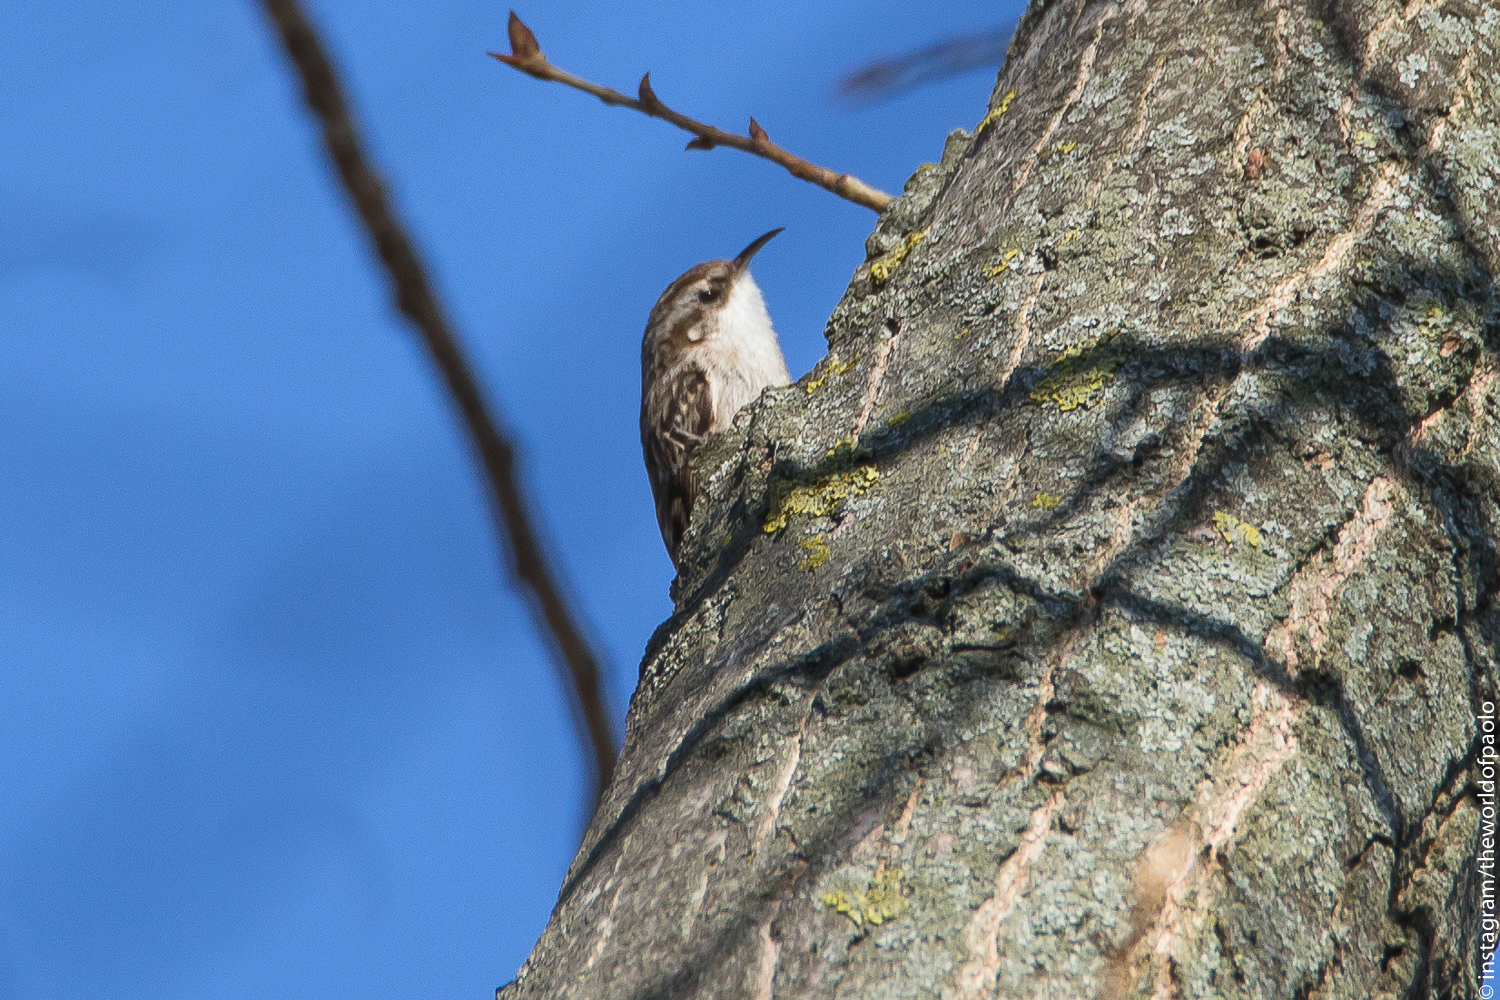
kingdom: Animalia
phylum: Chordata
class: Aves
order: Passeriformes
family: Certhiidae
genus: Certhia
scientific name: Certhia brachydactyla
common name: Short-toed treecreeper
